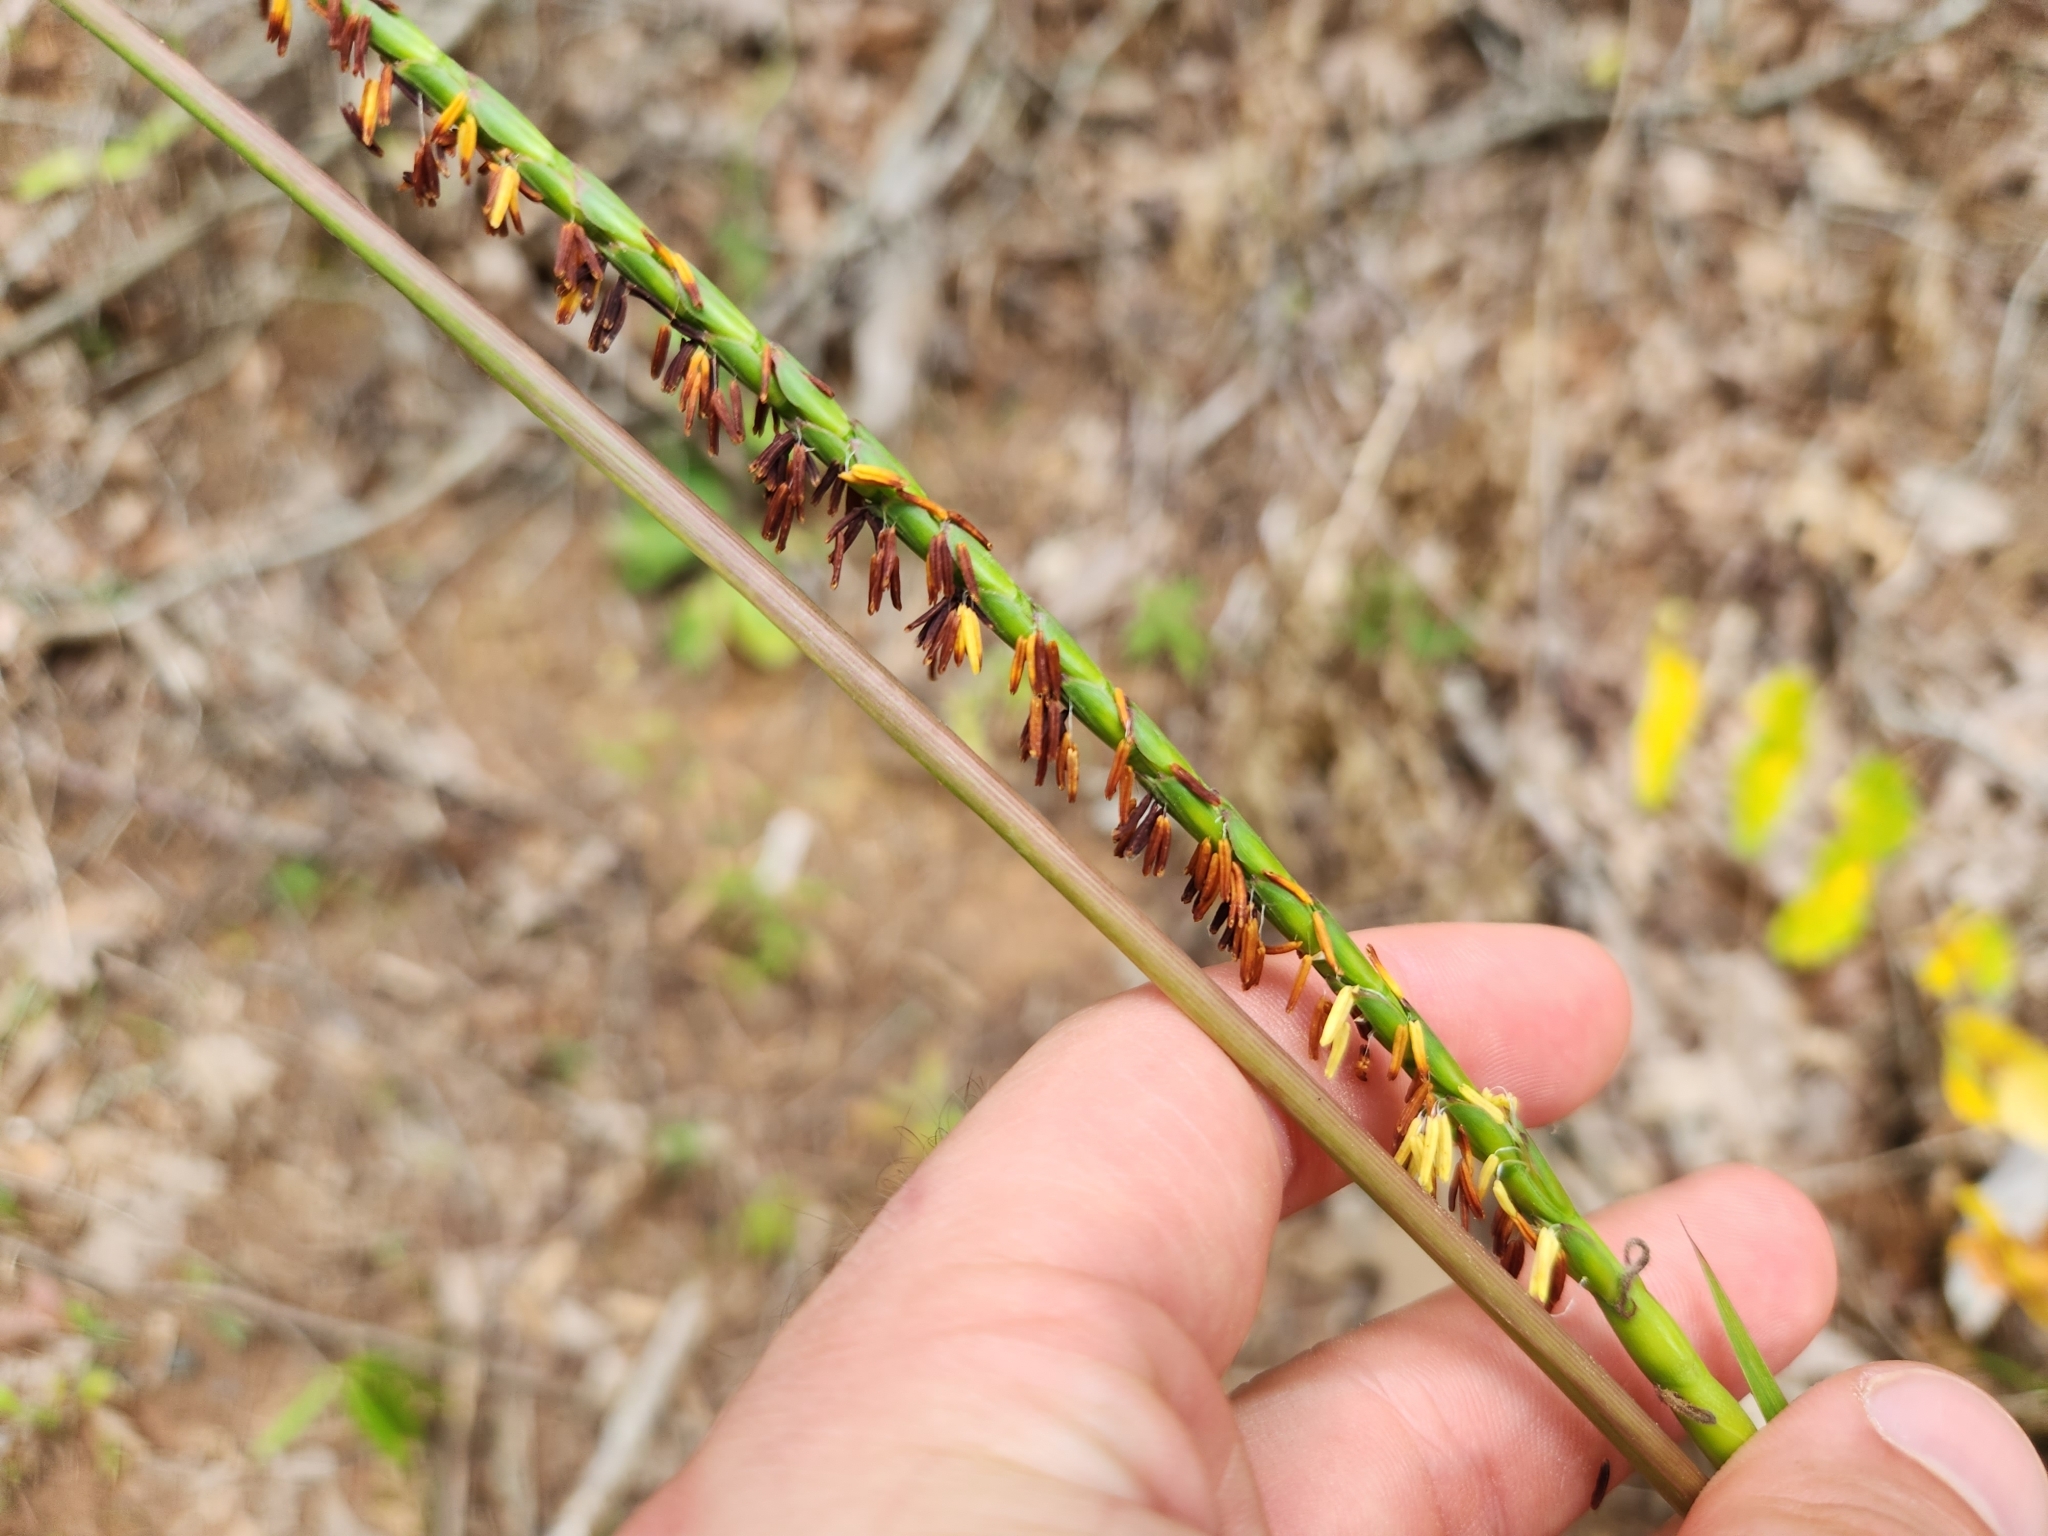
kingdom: Plantae
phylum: Tracheophyta
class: Liliopsida
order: Poales
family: Poaceae
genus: Tripsacum
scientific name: Tripsacum dactyloides
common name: Buffalo-grass
